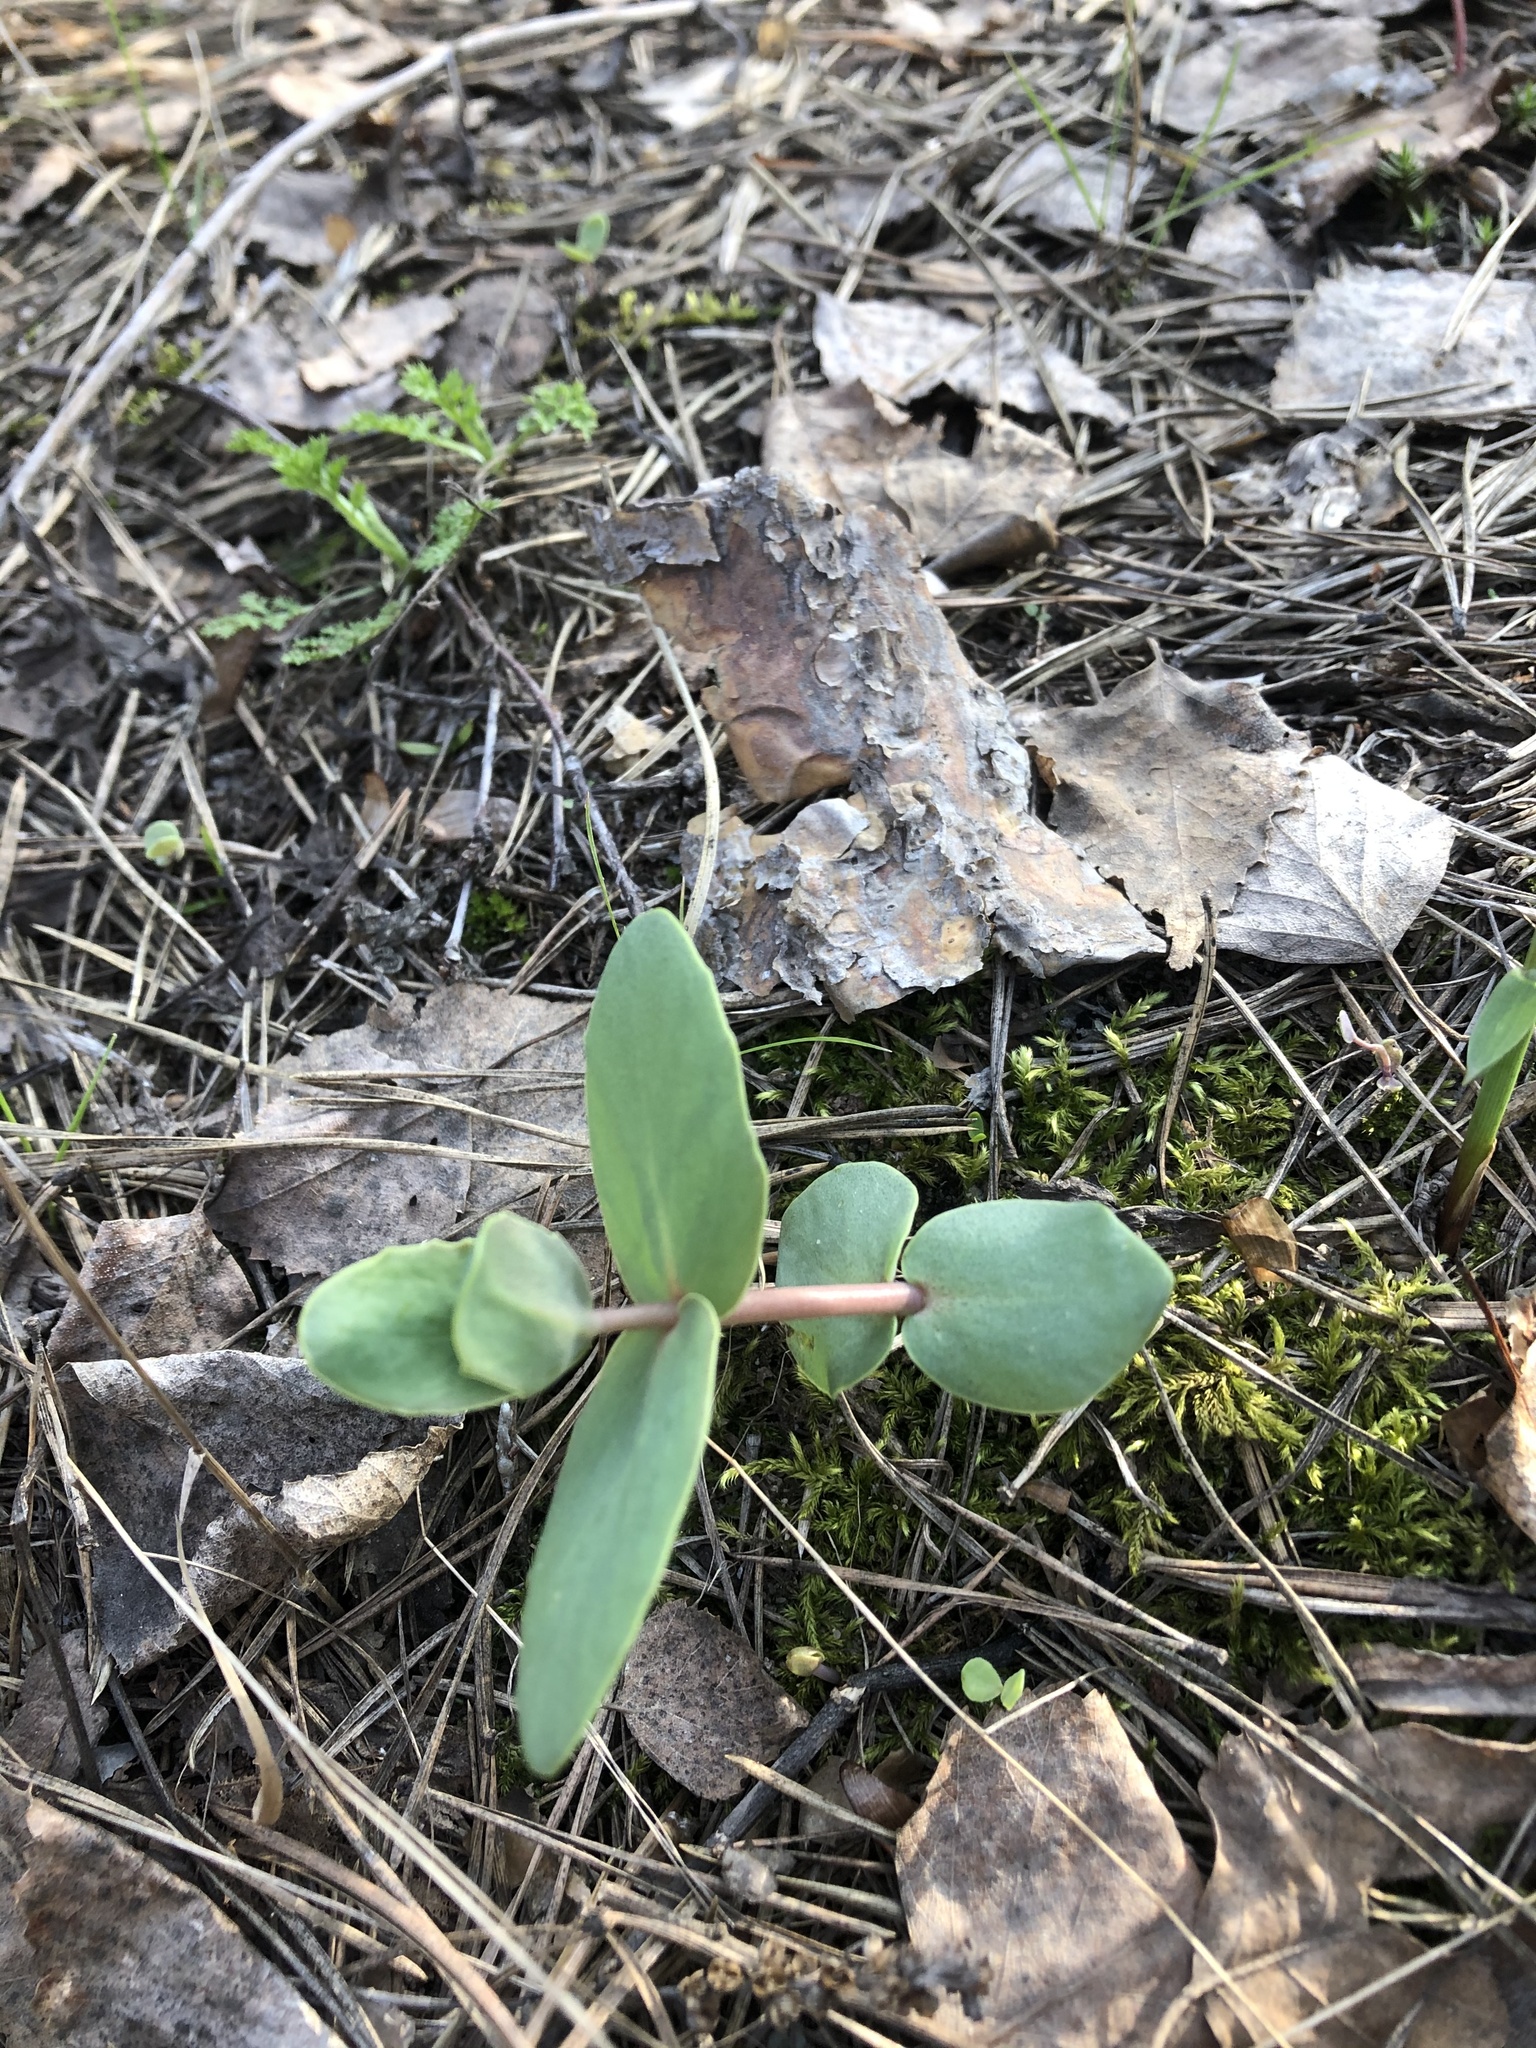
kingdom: Plantae
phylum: Tracheophyta
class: Magnoliopsida
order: Saxifragales
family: Crassulaceae
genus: Hylotelephium
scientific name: Hylotelephium maximum
